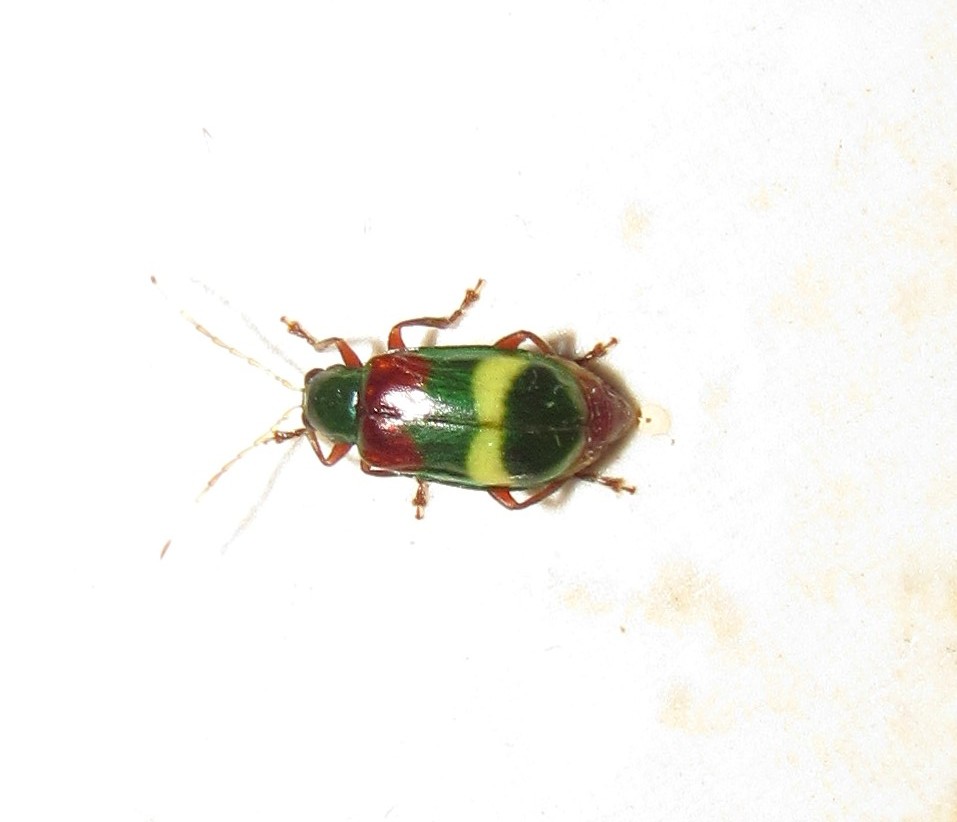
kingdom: Animalia
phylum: Arthropoda
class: Insecta
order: Coleoptera
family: Chrysomelidae
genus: Charidotella
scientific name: Charidotella amoenula
